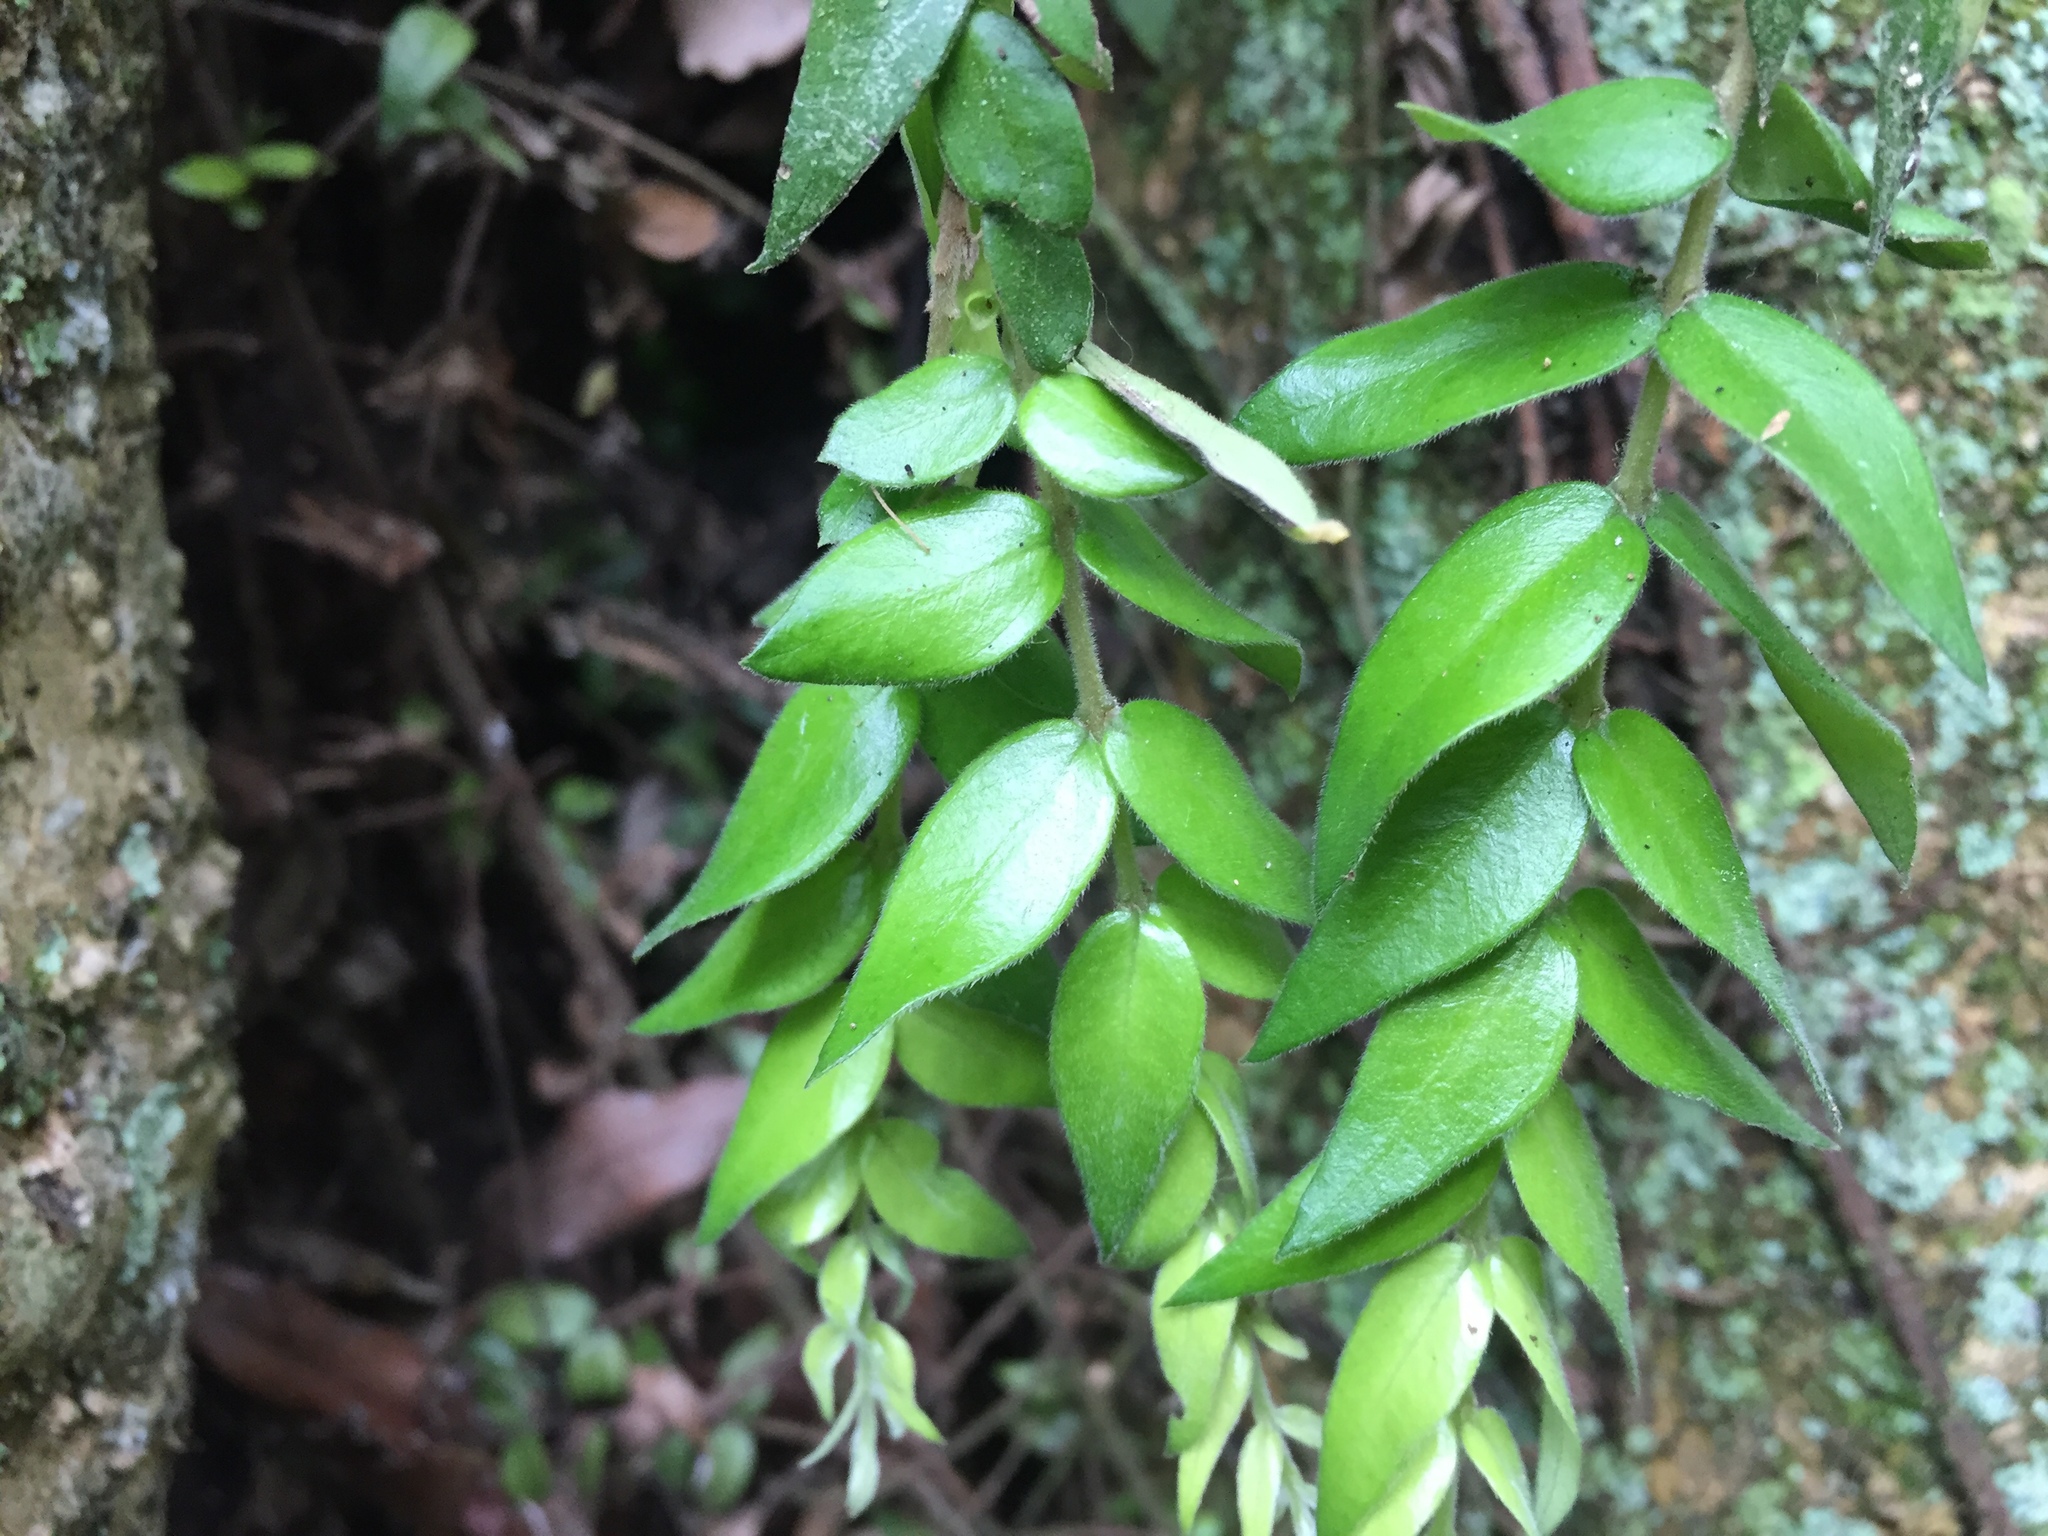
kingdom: Plantae
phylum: Tracheophyta
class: Magnoliopsida
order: Myrtales
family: Myrtaceae
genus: Metrosideros
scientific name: Metrosideros colensoi
